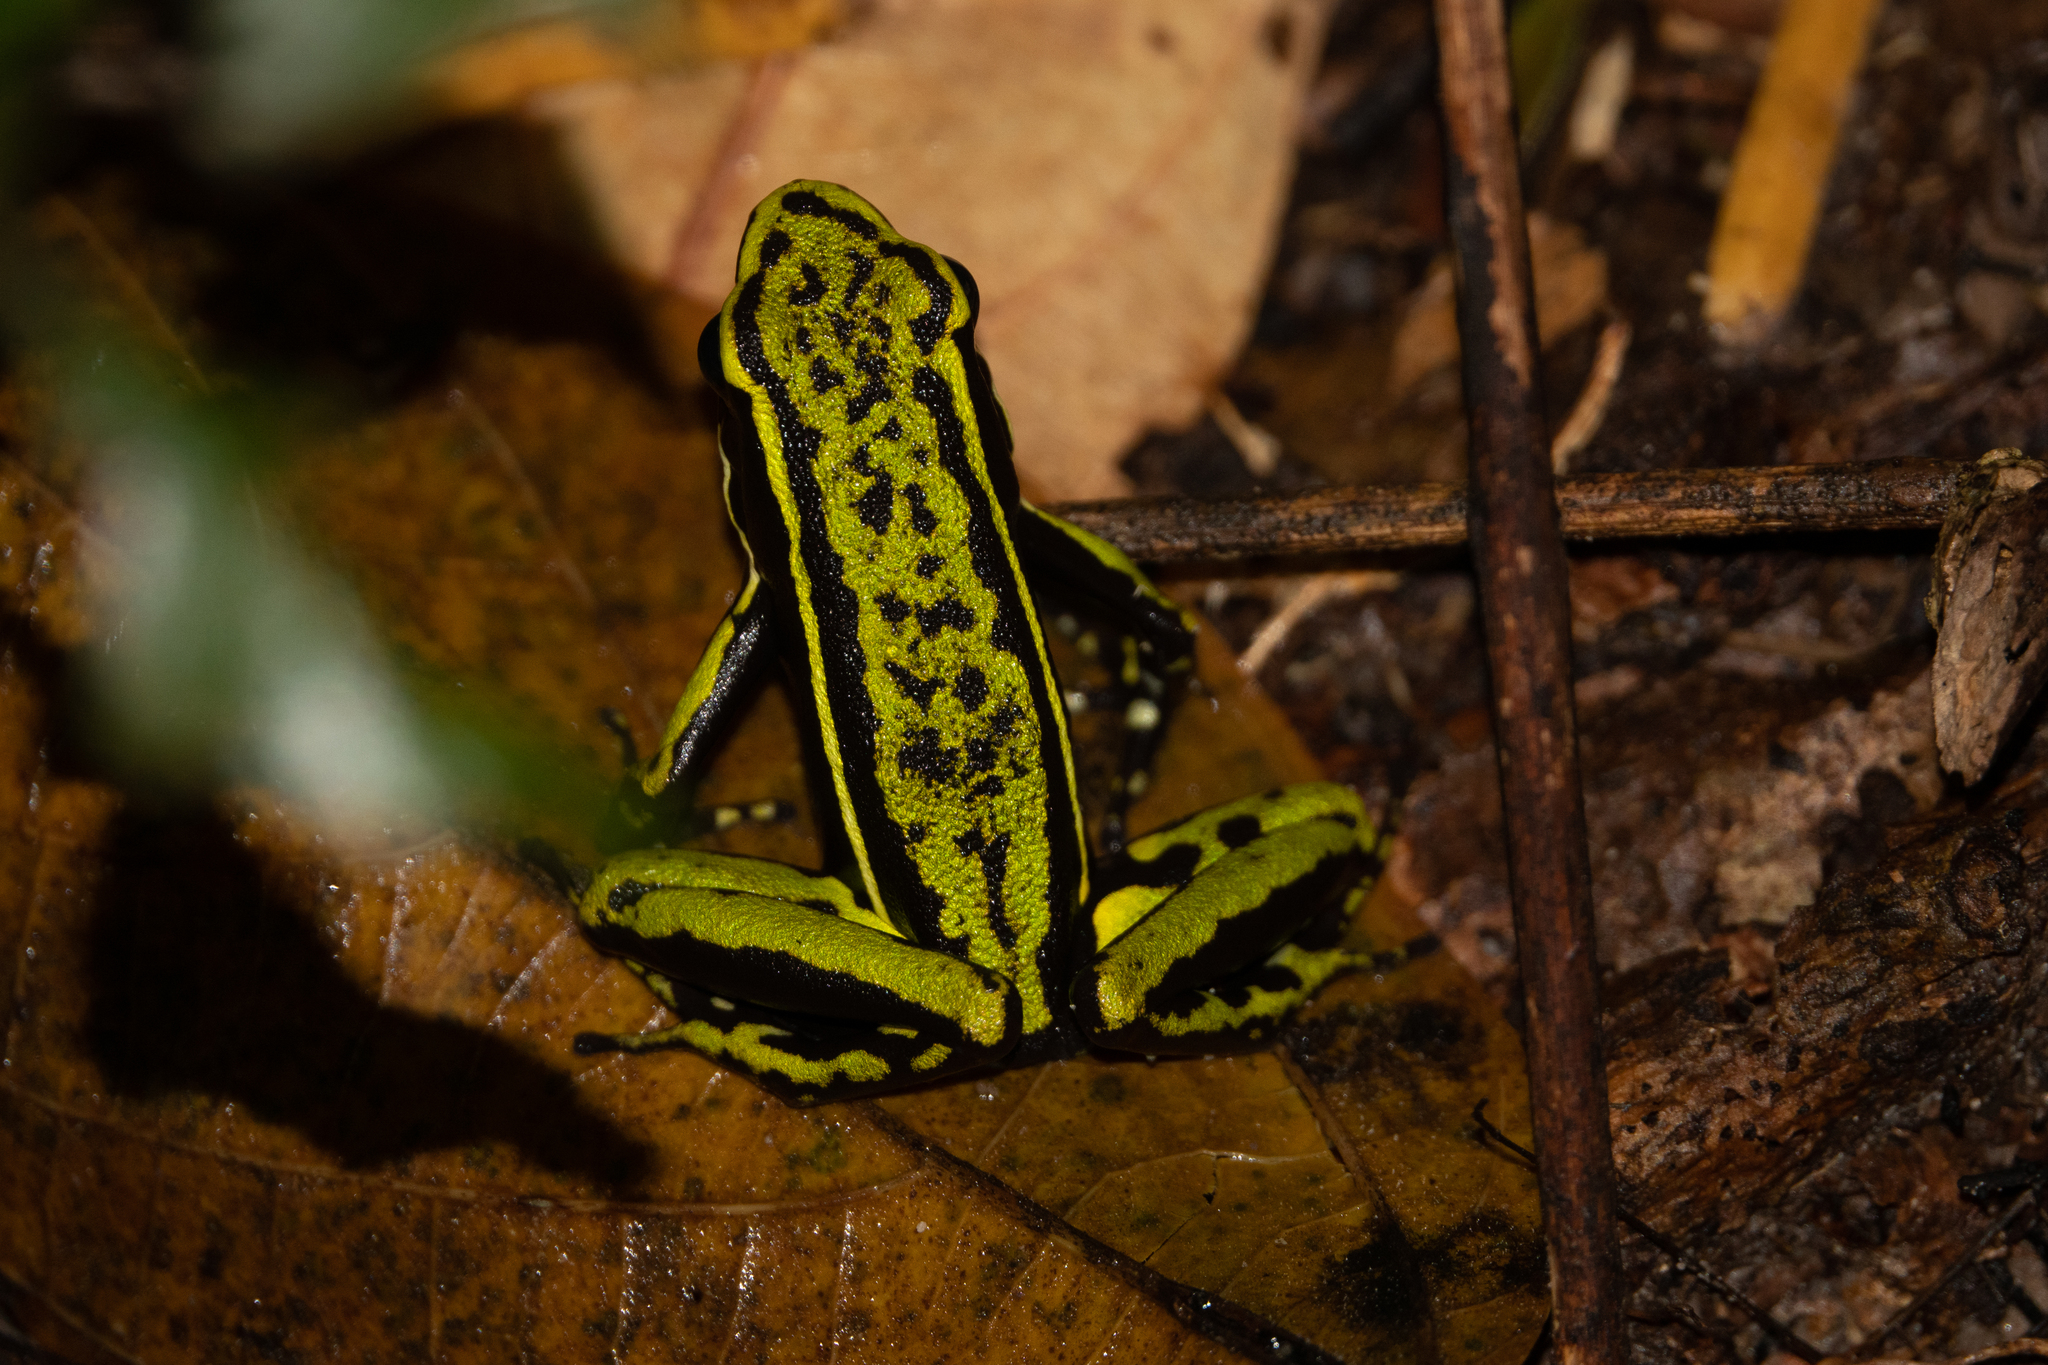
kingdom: Animalia
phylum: Chordata
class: Amphibia
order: Anura
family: Dendrobatidae
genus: Ameerega
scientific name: Ameerega trivittata
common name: Three-striped arrow-poison frog
